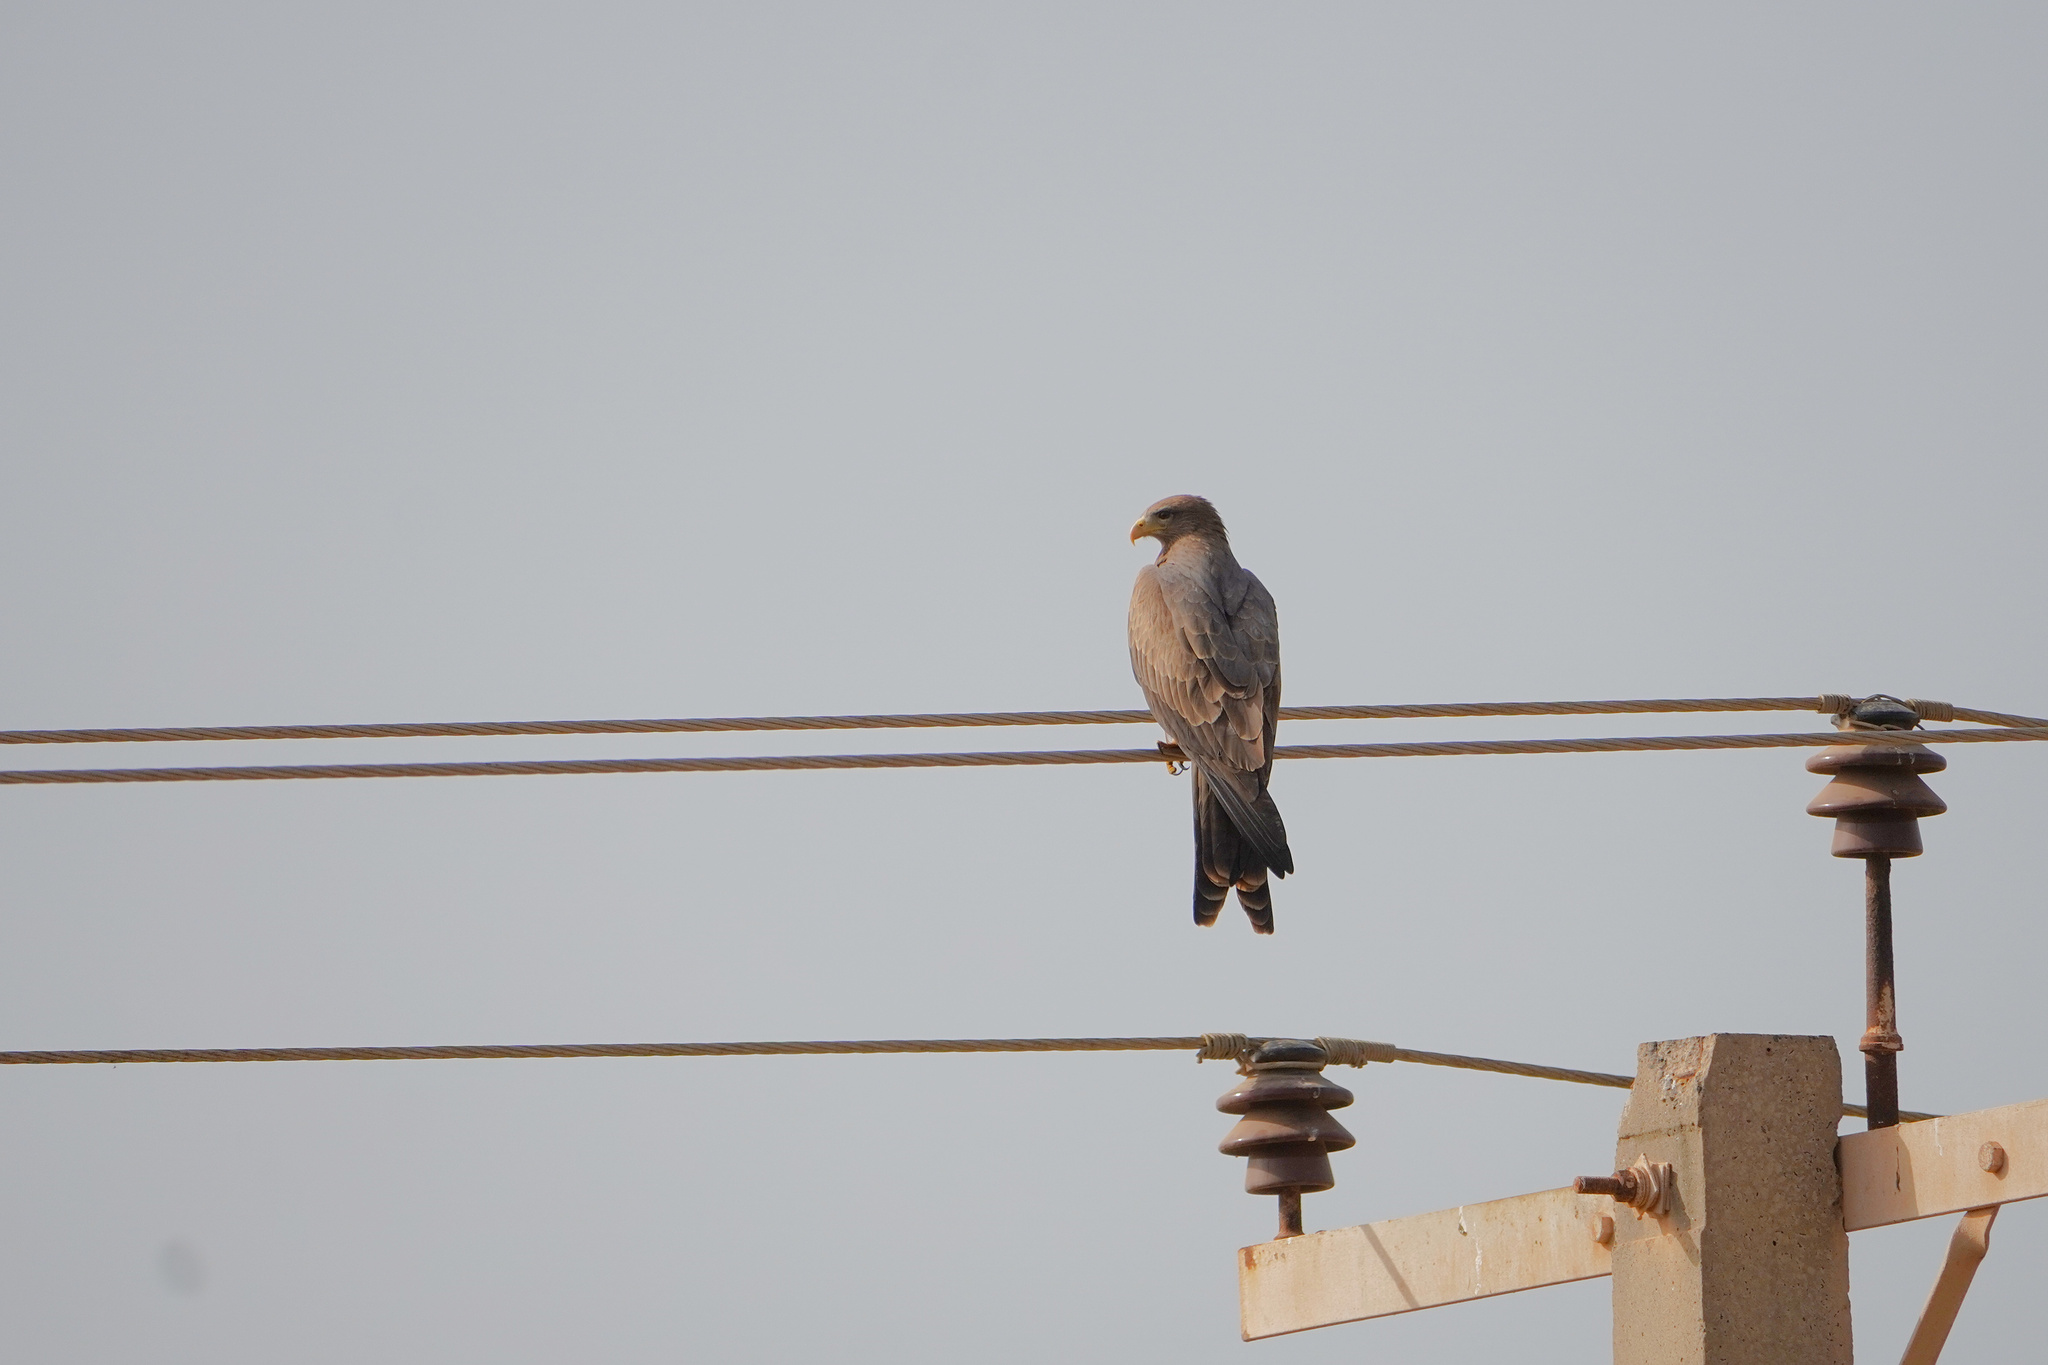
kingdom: Animalia
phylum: Chordata
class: Aves
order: Accipitriformes
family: Accipitridae
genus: Milvus
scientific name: Milvus migrans
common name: Black kite
